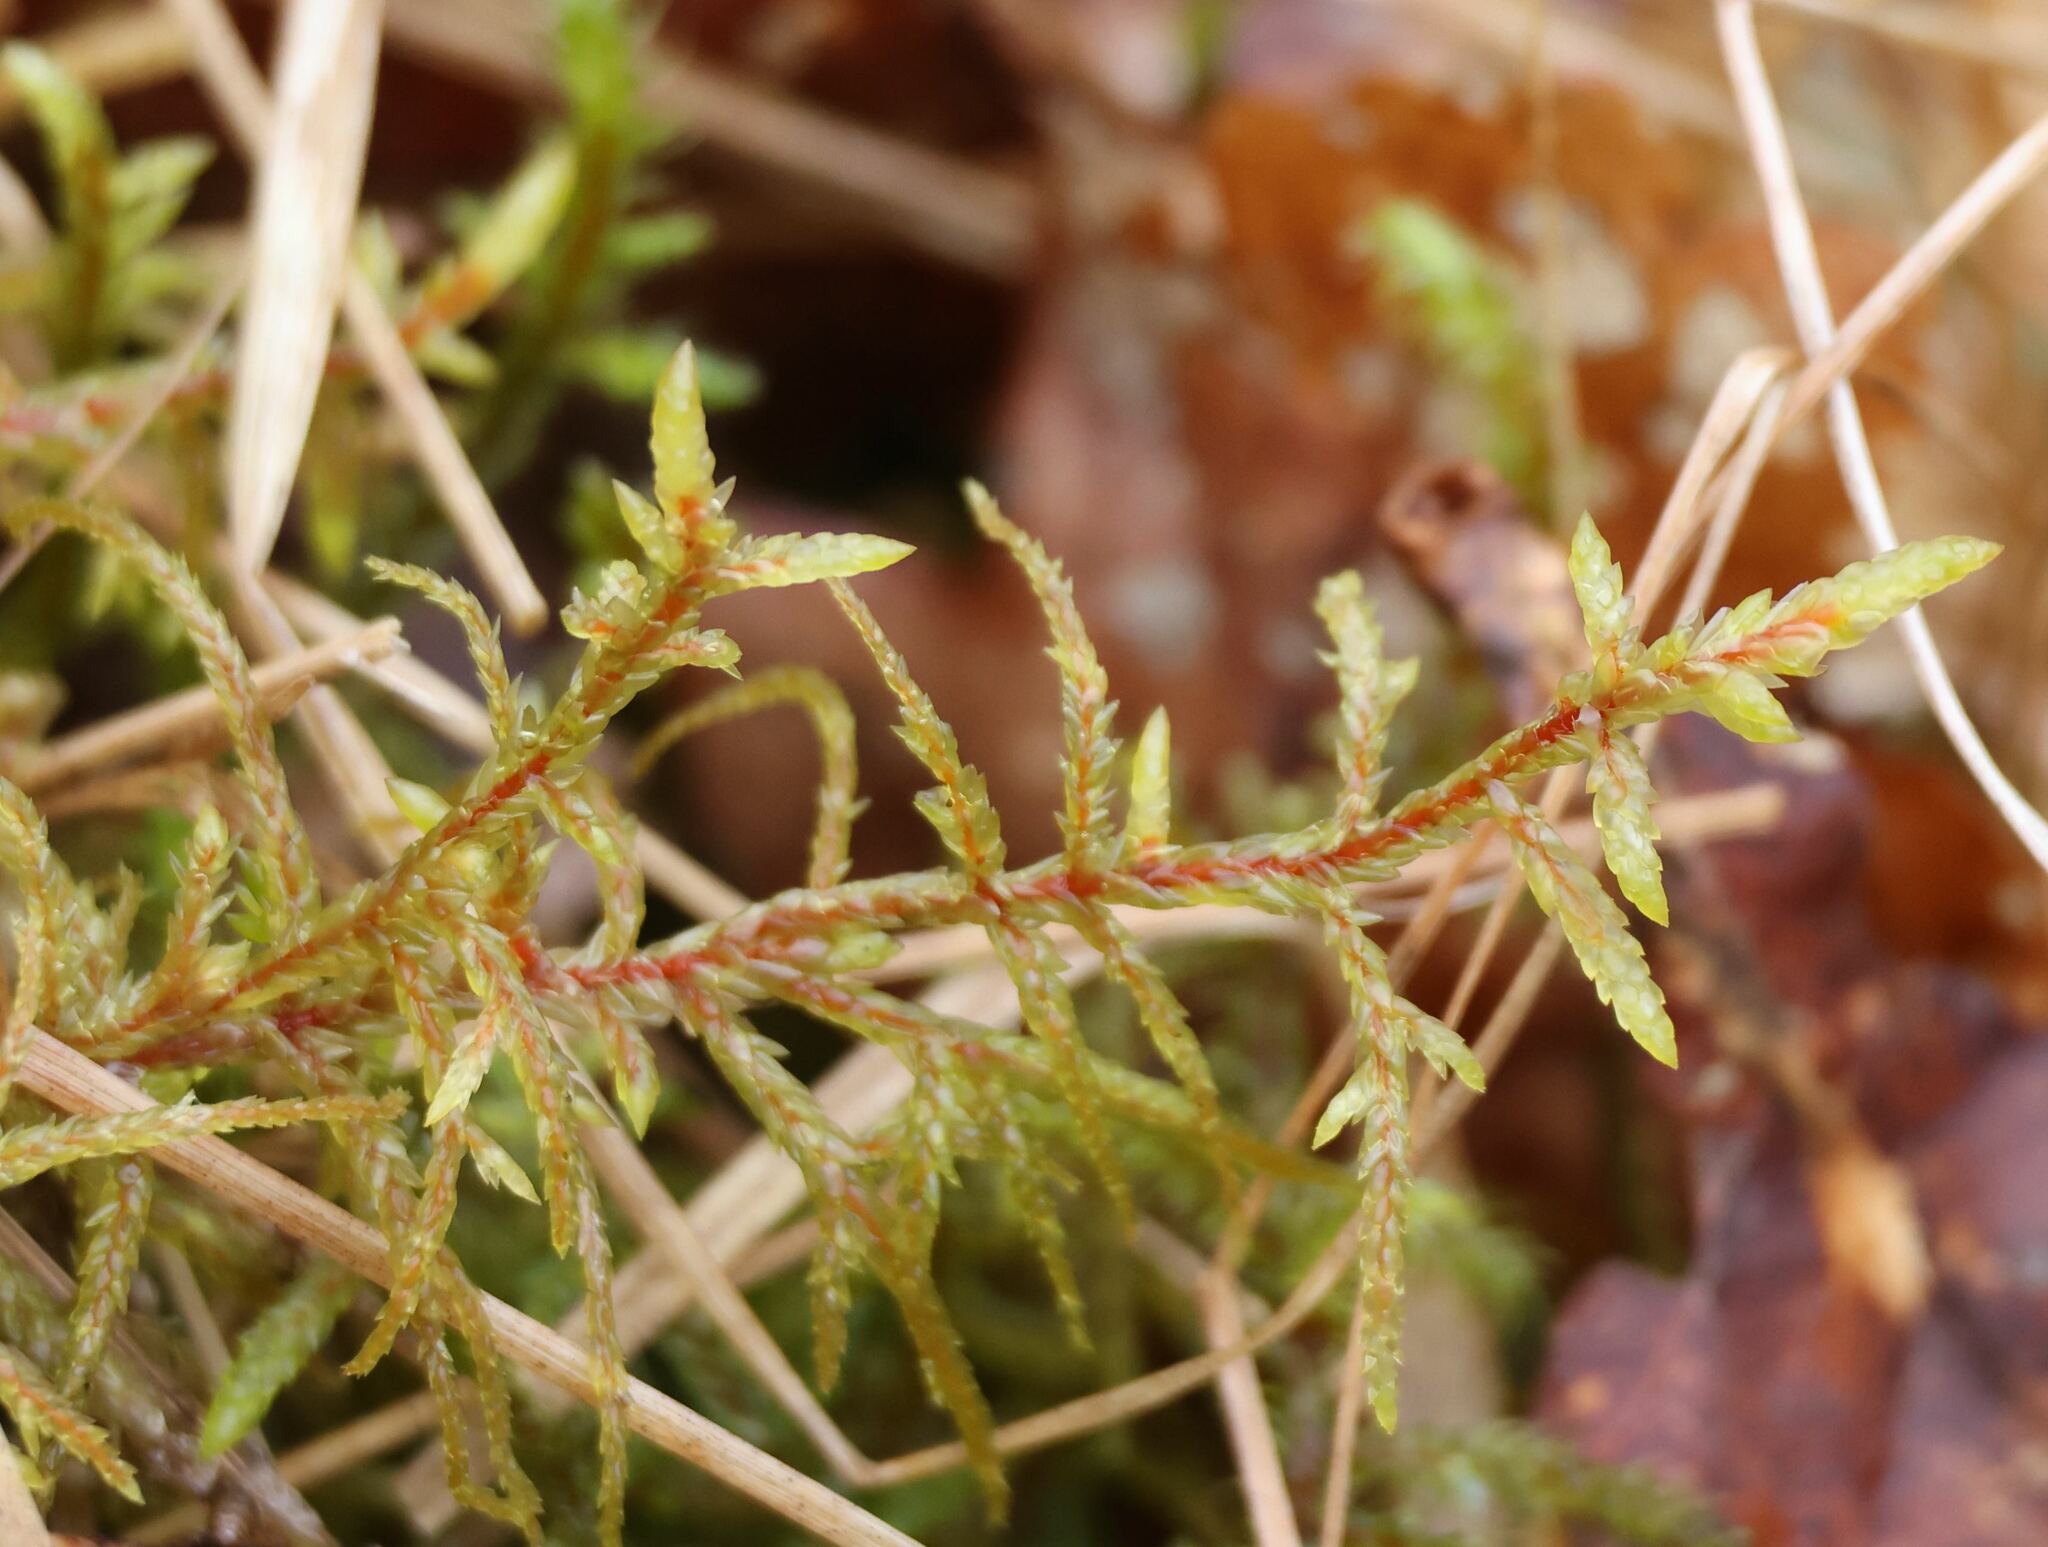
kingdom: Plantae
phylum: Bryophyta
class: Bryopsida
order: Hypnales
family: Hylocomiaceae
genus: Pleurozium
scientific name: Pleurozium schreberi
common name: Red-stemmed feather moss
